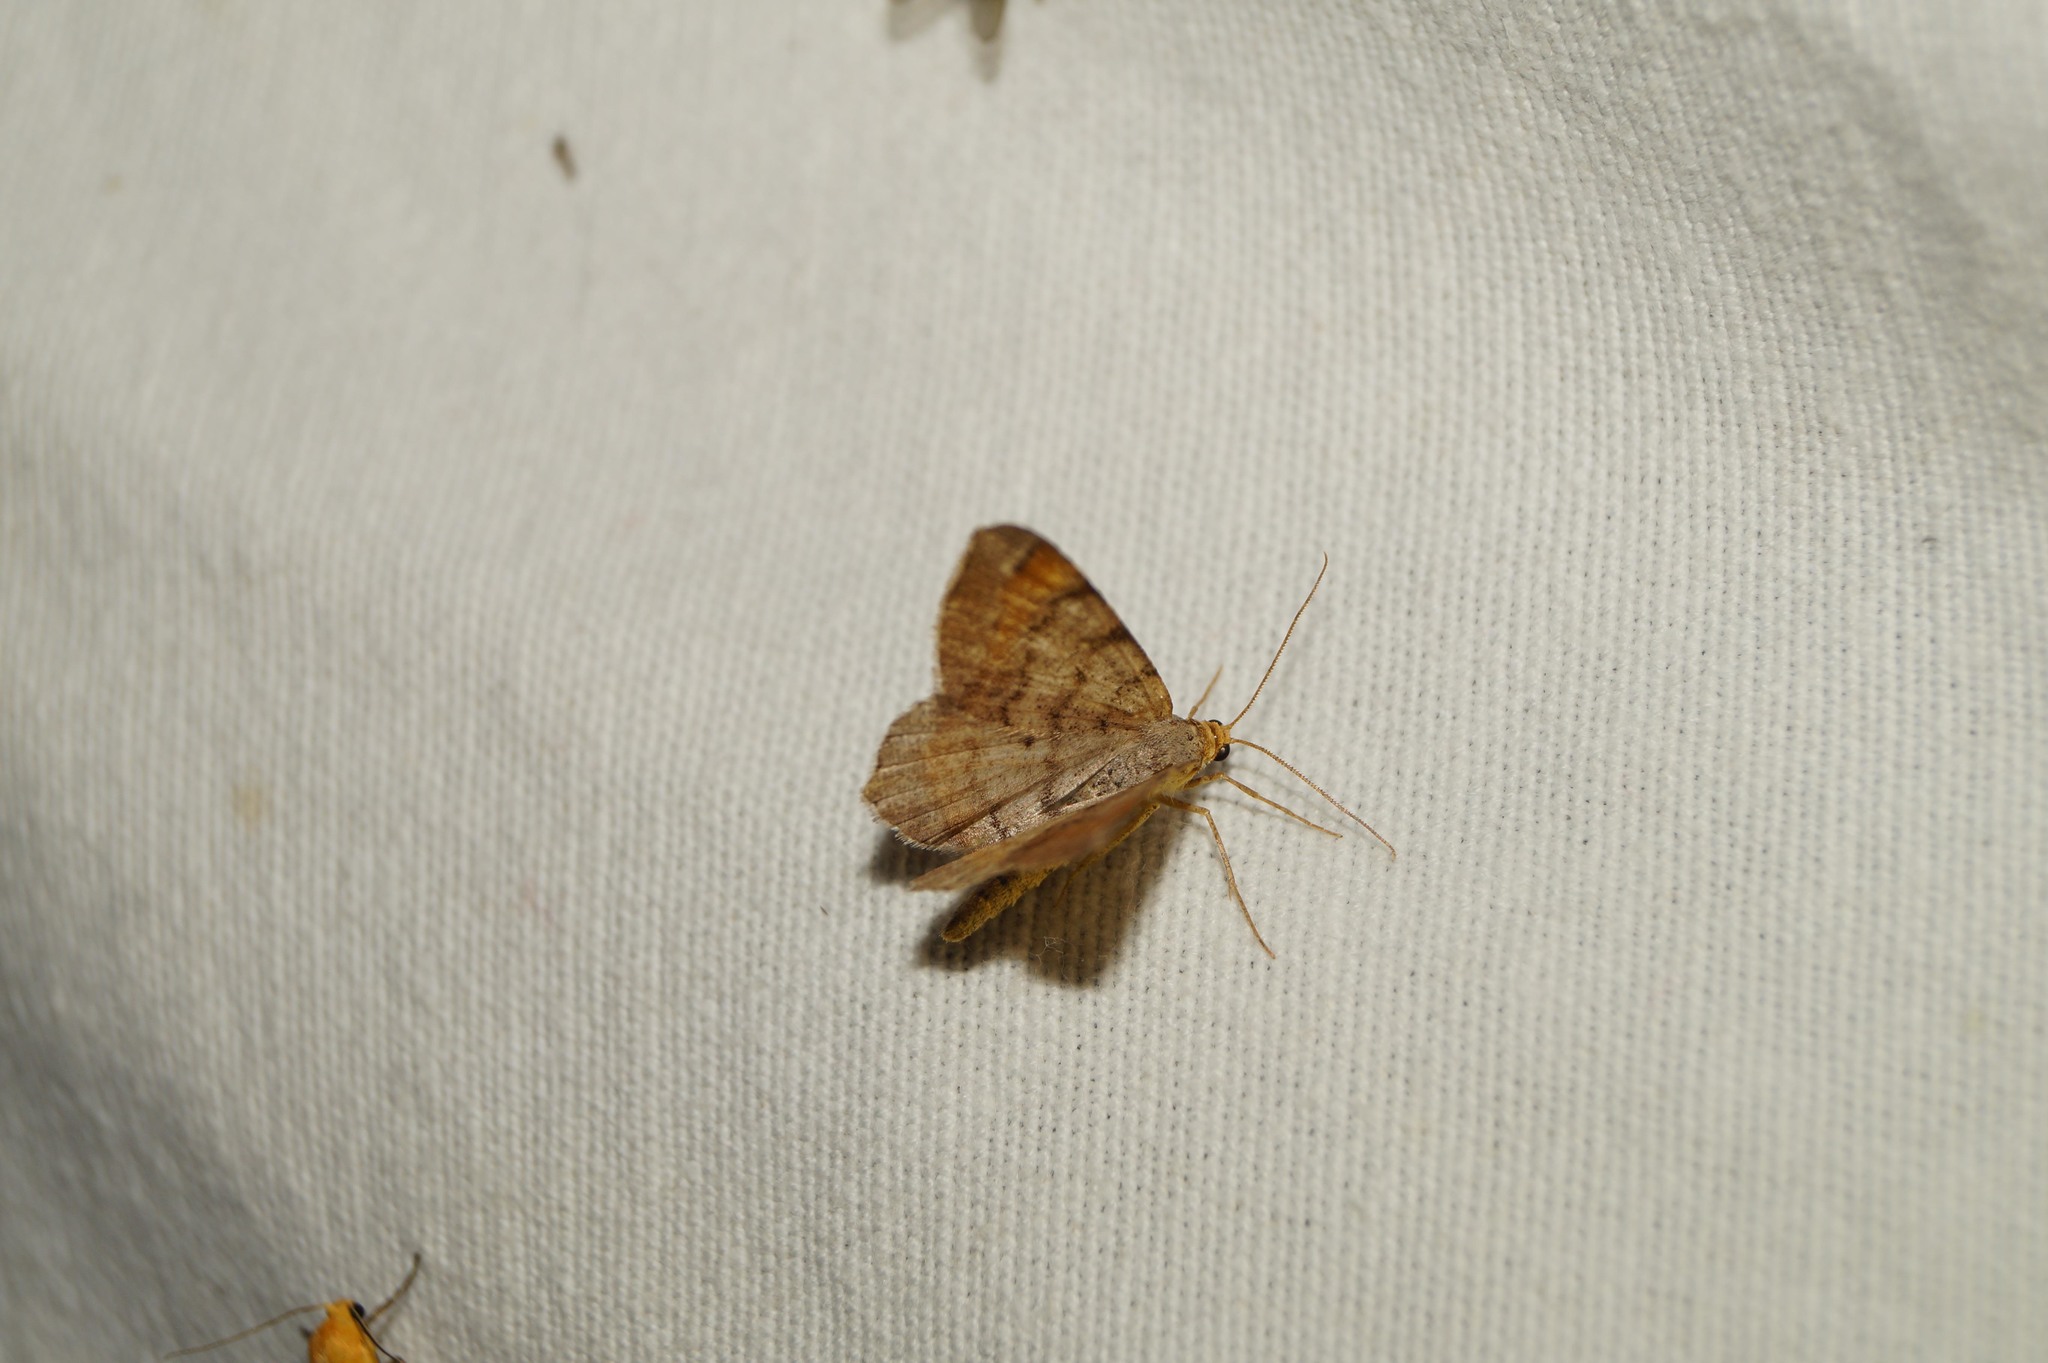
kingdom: Animalia
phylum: Arthropoda
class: Insecta
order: Lepidoptera
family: Geometridae
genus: Macaria
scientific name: Macaria liturata
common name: Tawny-barred angle
